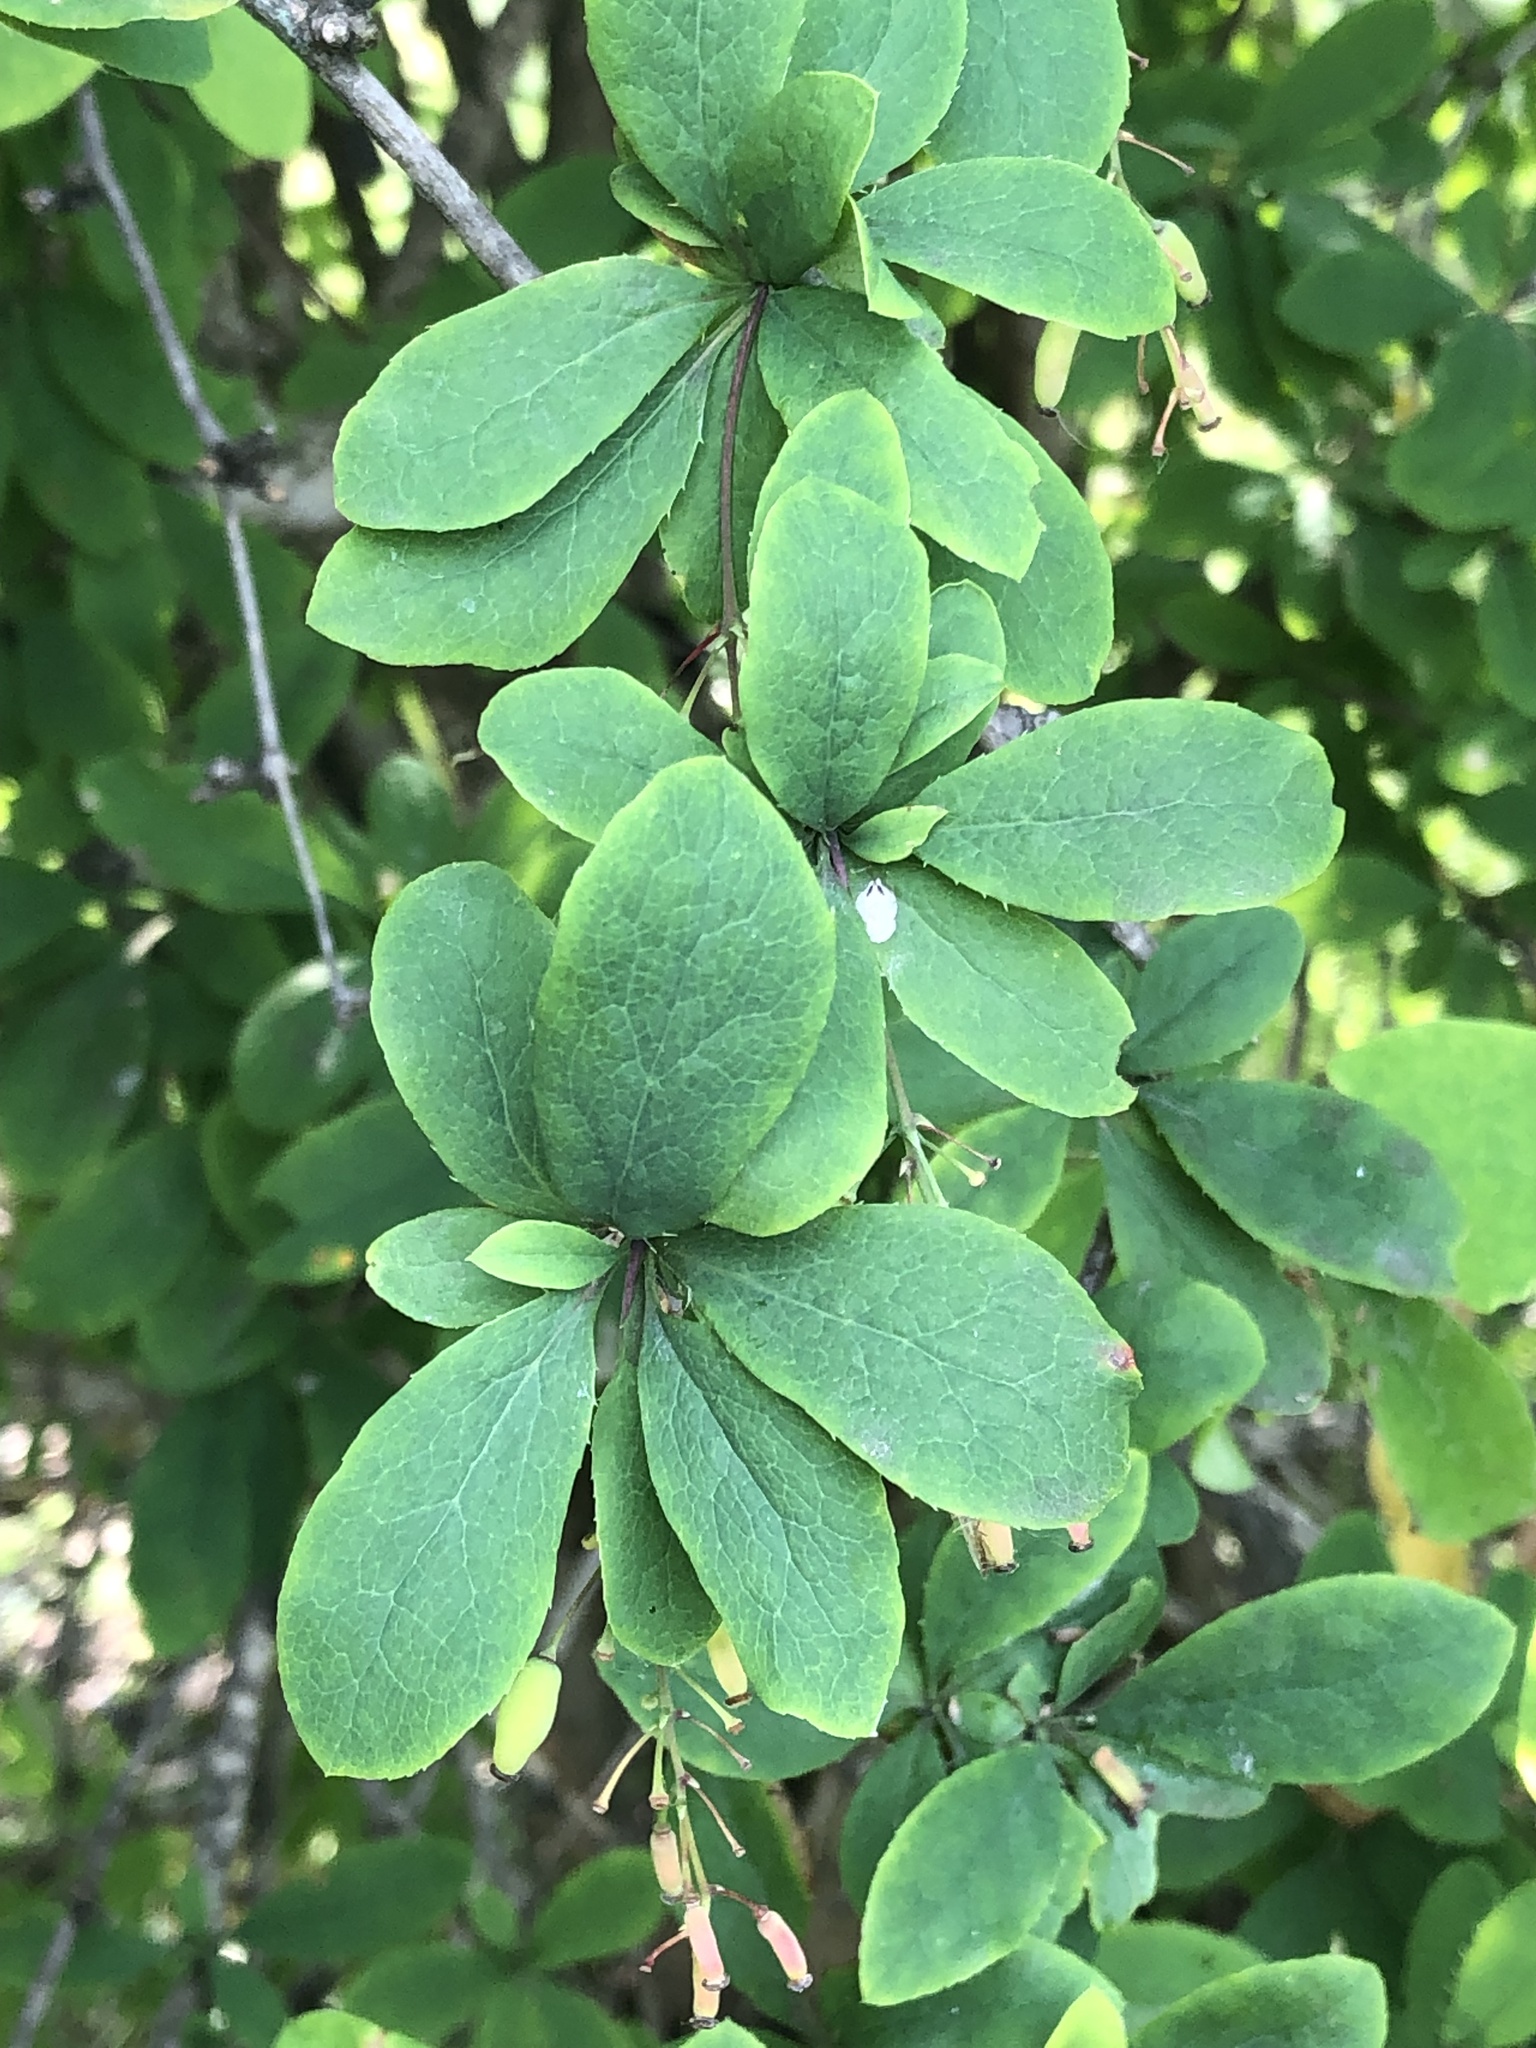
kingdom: Plantae
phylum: Tracheophyta
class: Magnoliopsida
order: Ranunculales
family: Berberidaceae
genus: Berberis
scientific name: Berberis vulgaris
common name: Barberry
